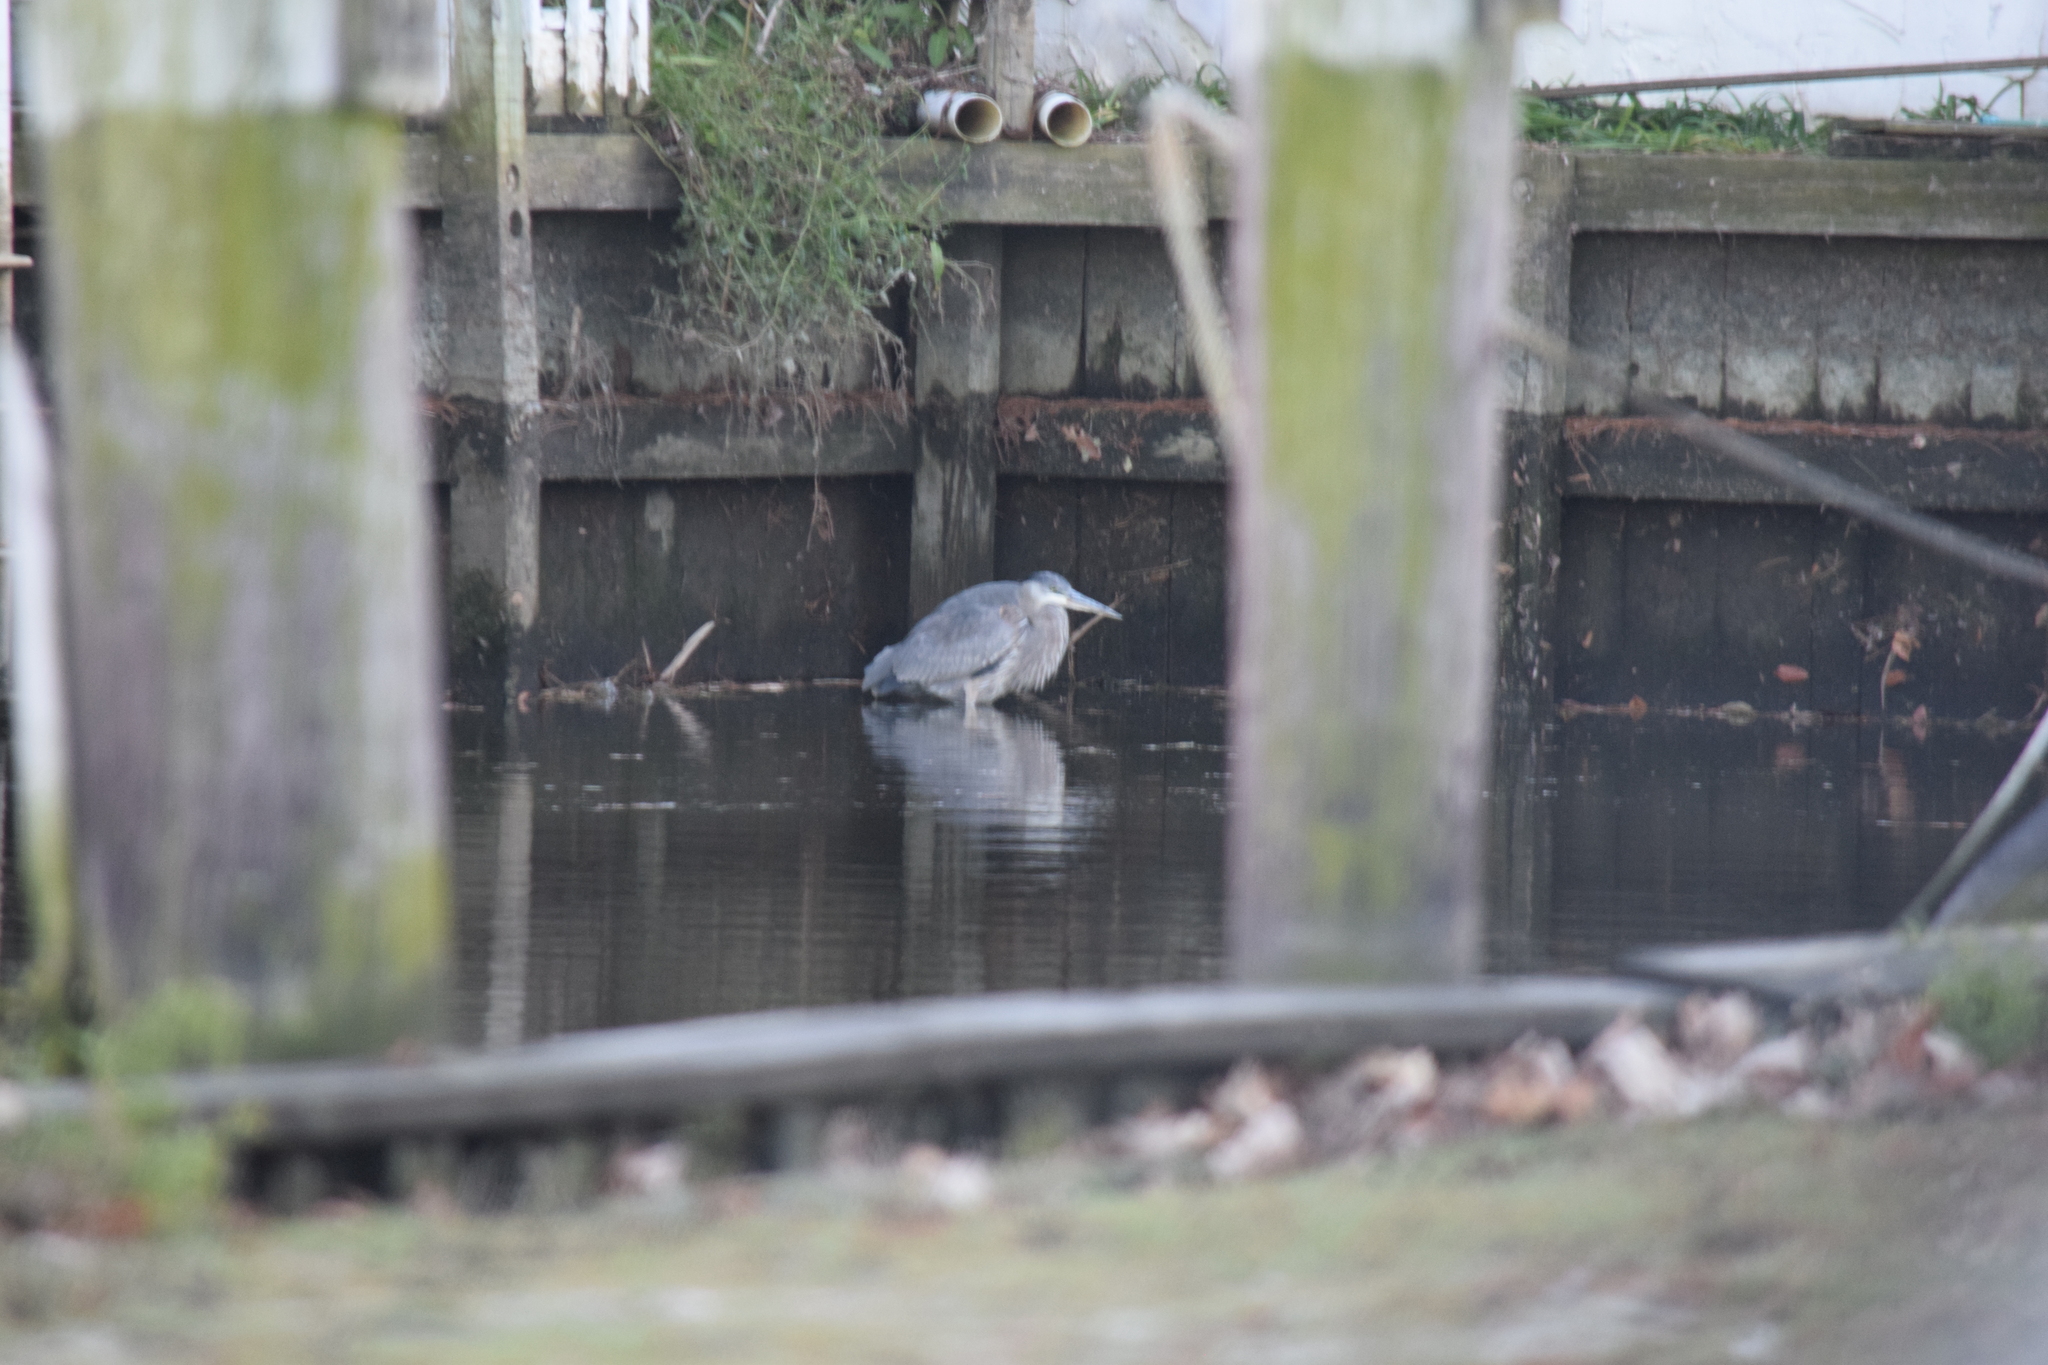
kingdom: Animalia
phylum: Chordata
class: Aves
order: Pelecaniformes
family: Ardeidae
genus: Ardea
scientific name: Ardea herodias
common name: Great blue heron
